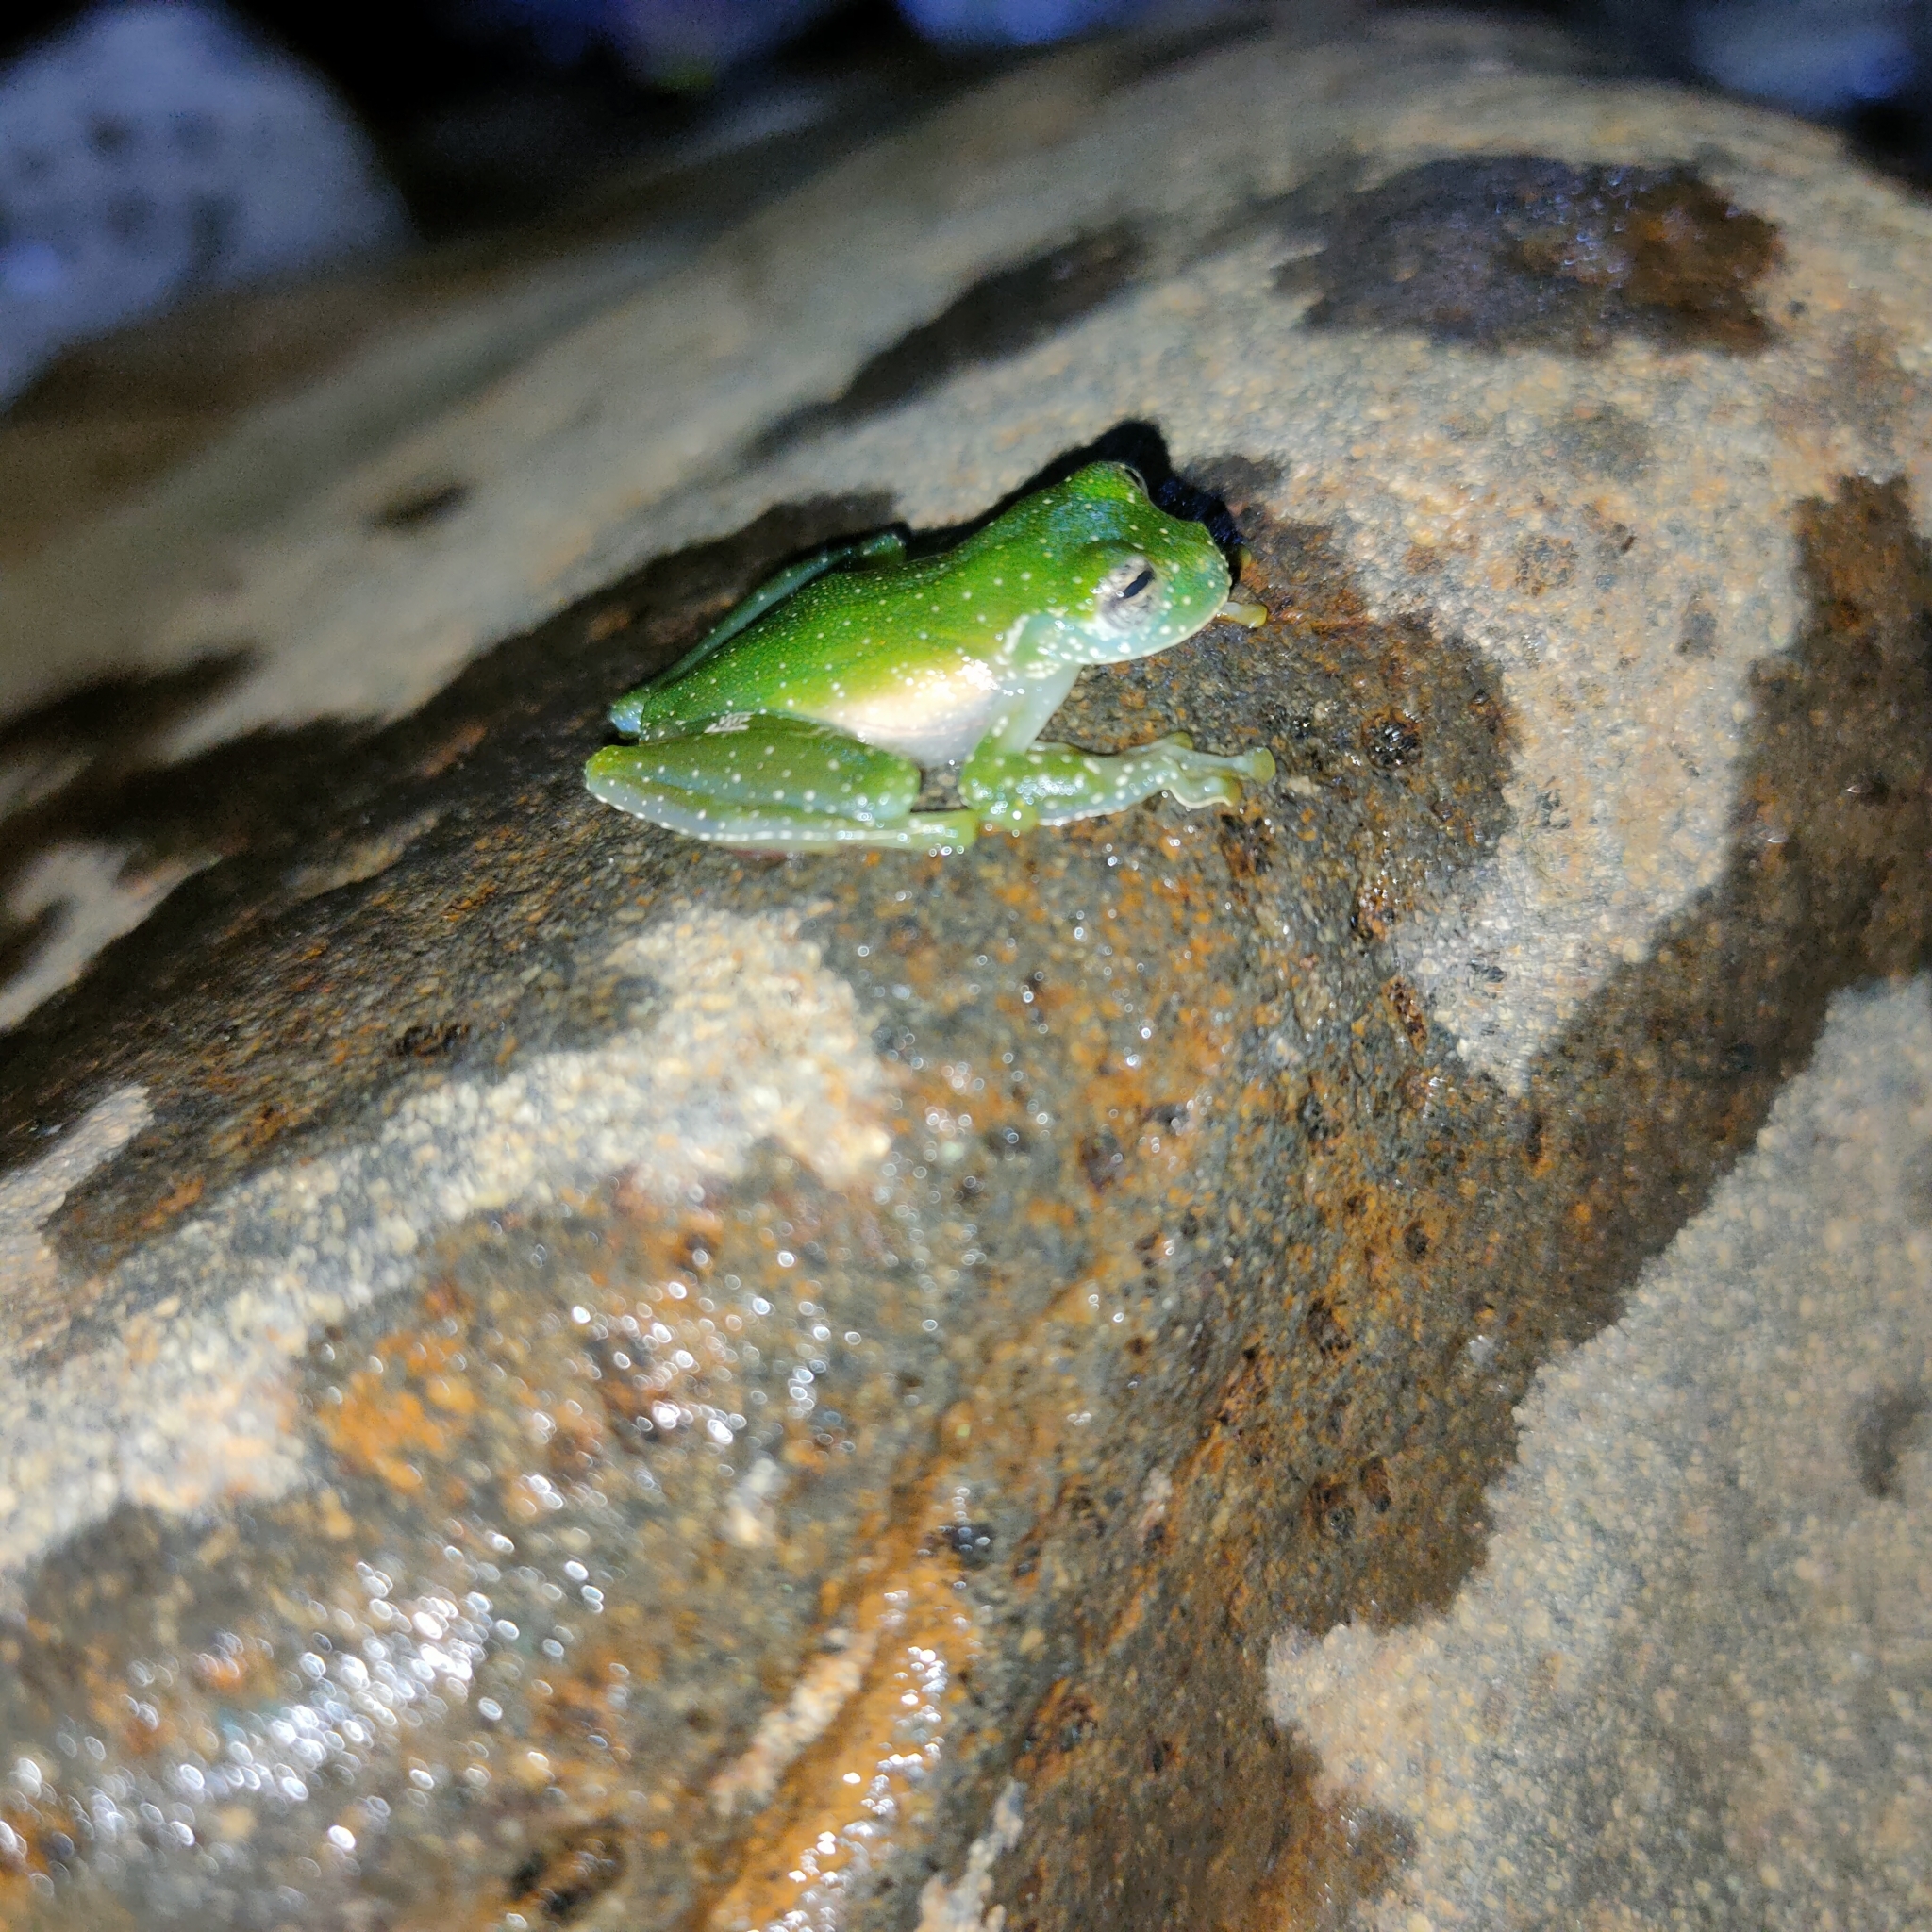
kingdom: Animalia
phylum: Chordata
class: Amphibia
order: Anura
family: Centrolenidae
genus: Sachatamia
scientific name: Sachatamia albomaculata
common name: Rana de cristal de cascada
